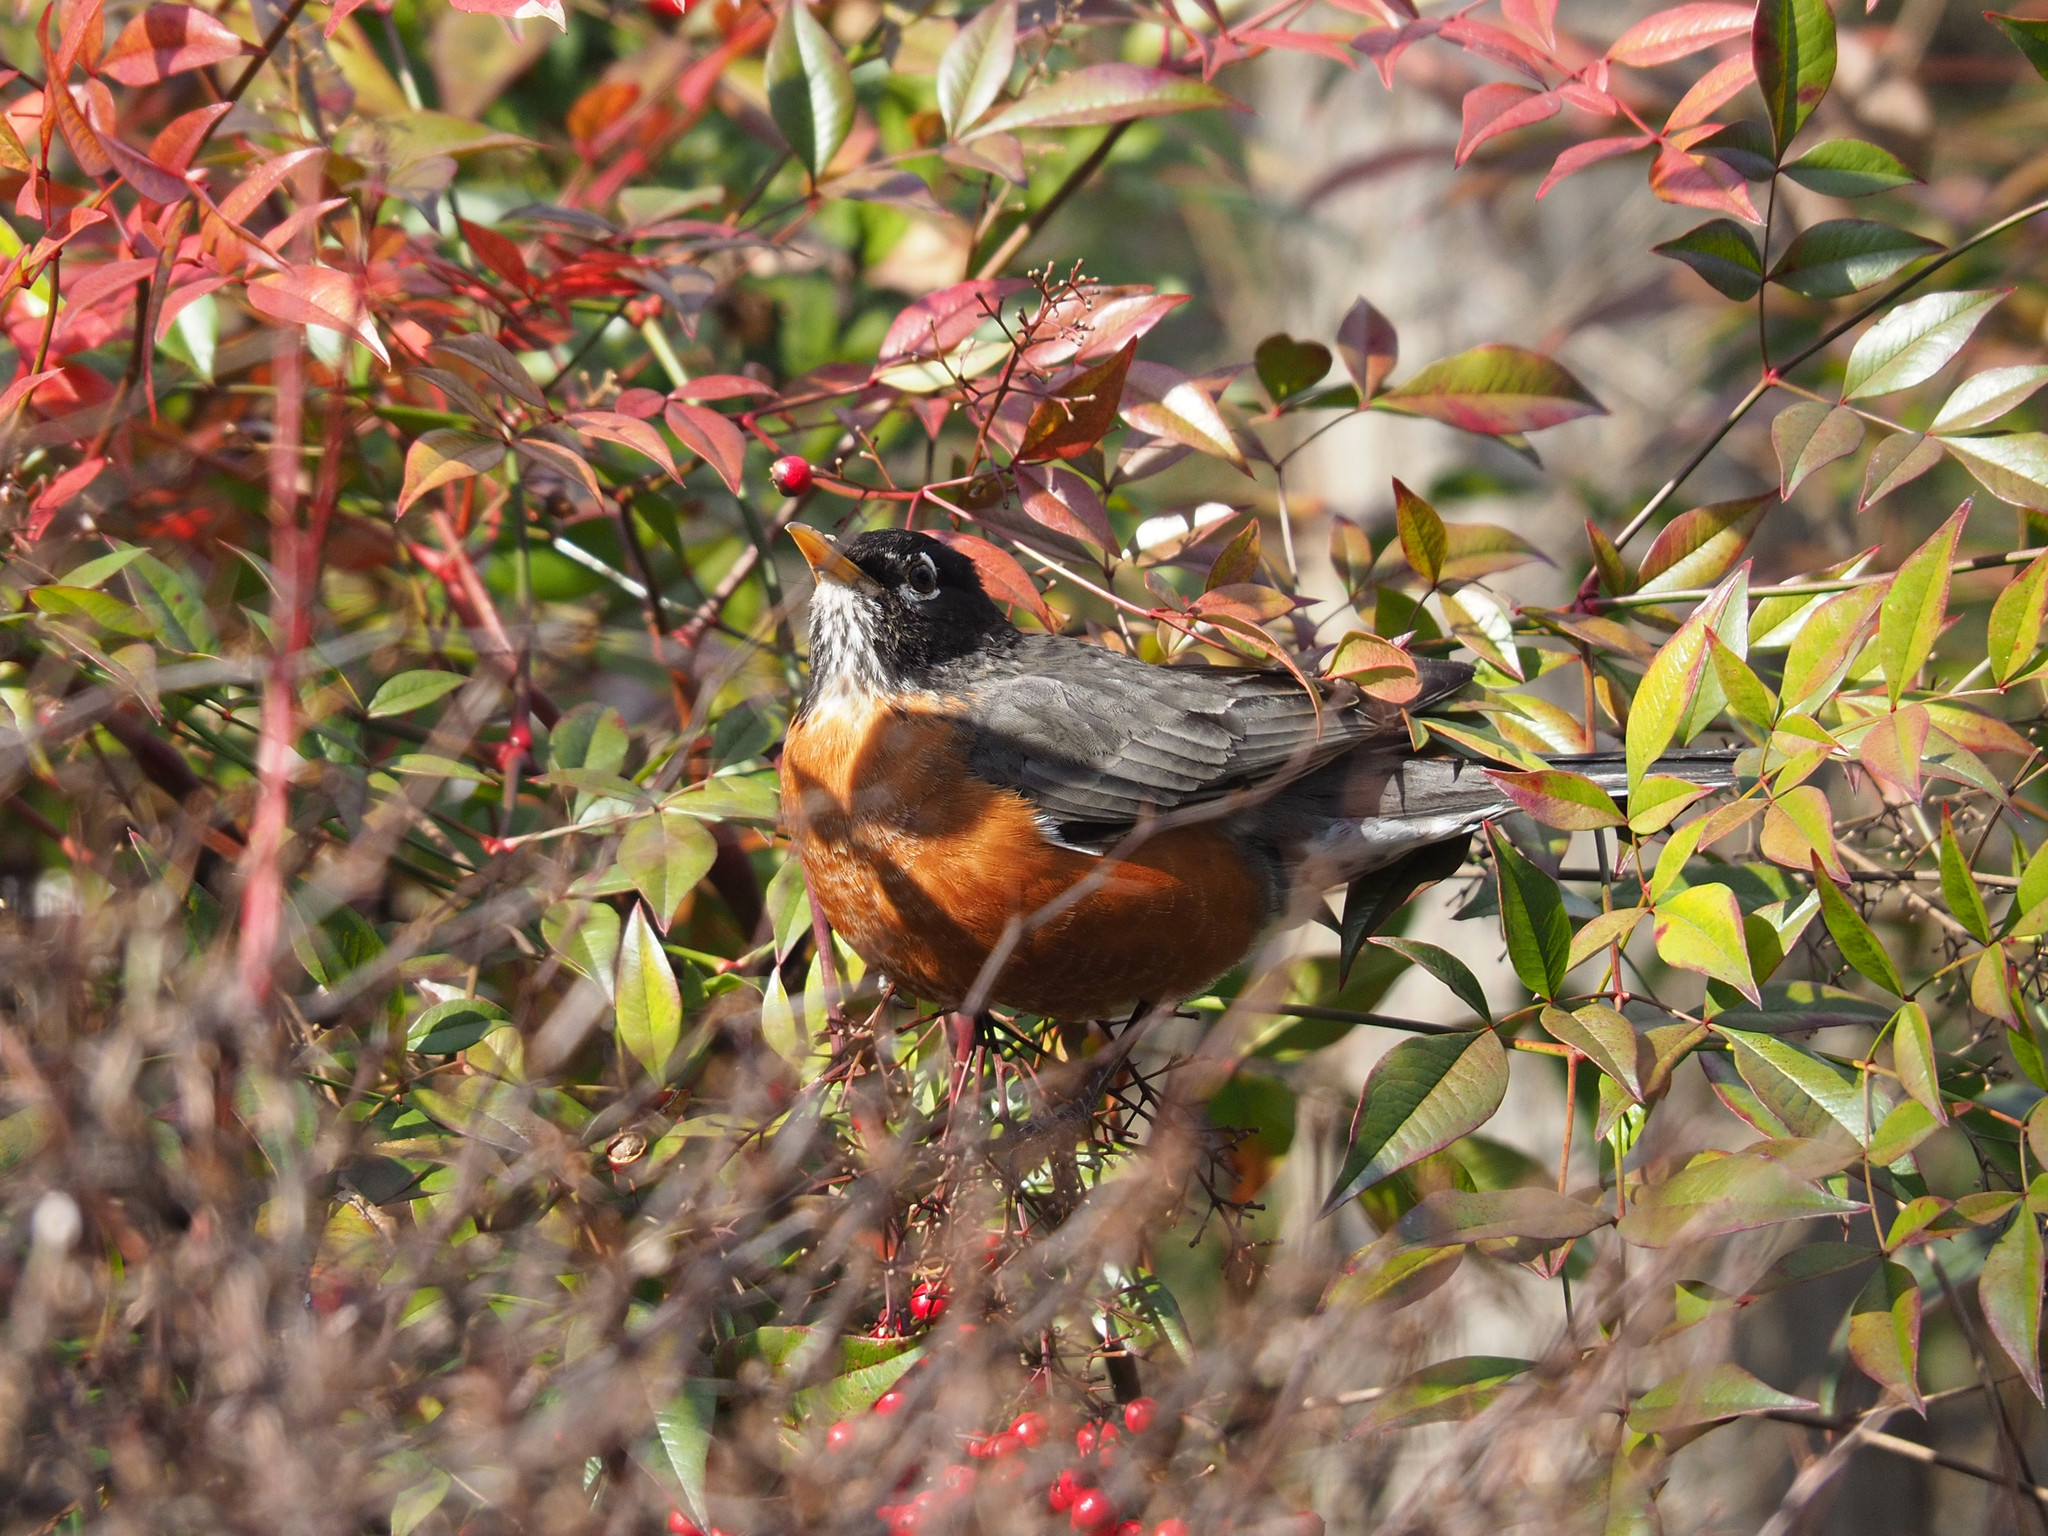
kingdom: Animalia
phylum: Chordata
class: Aves
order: Passeriformes
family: Turdidae
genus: Turdus
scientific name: Turdus migratorius
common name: American robin
